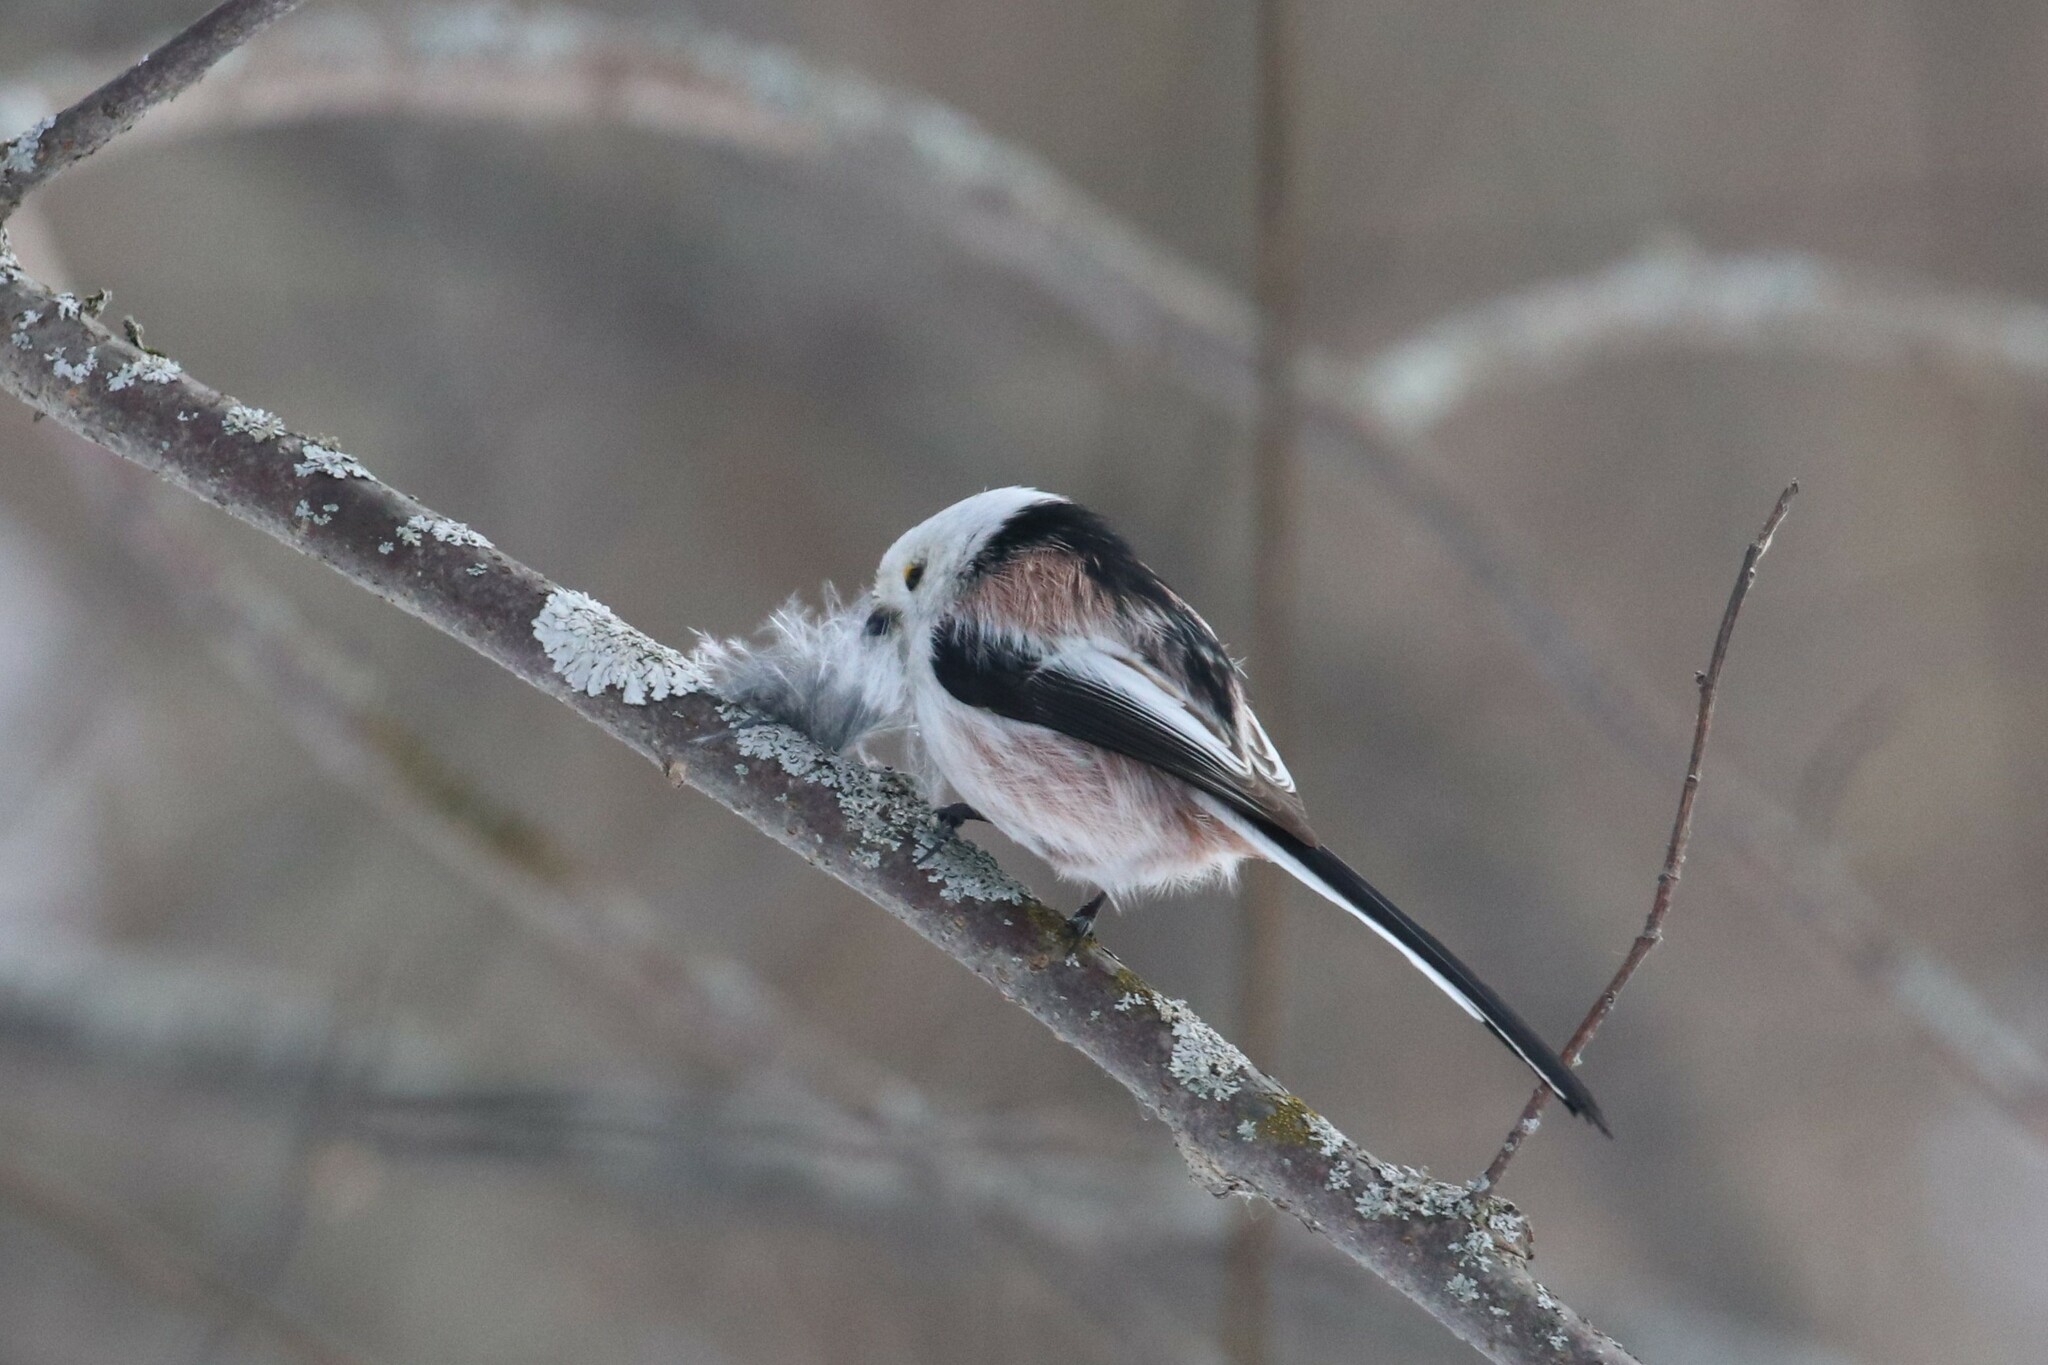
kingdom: Animalia
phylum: Chordata
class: Aves
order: Passeriformes
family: Aegithalidae
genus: Aegithalos
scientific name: Aegithalos caudatus
